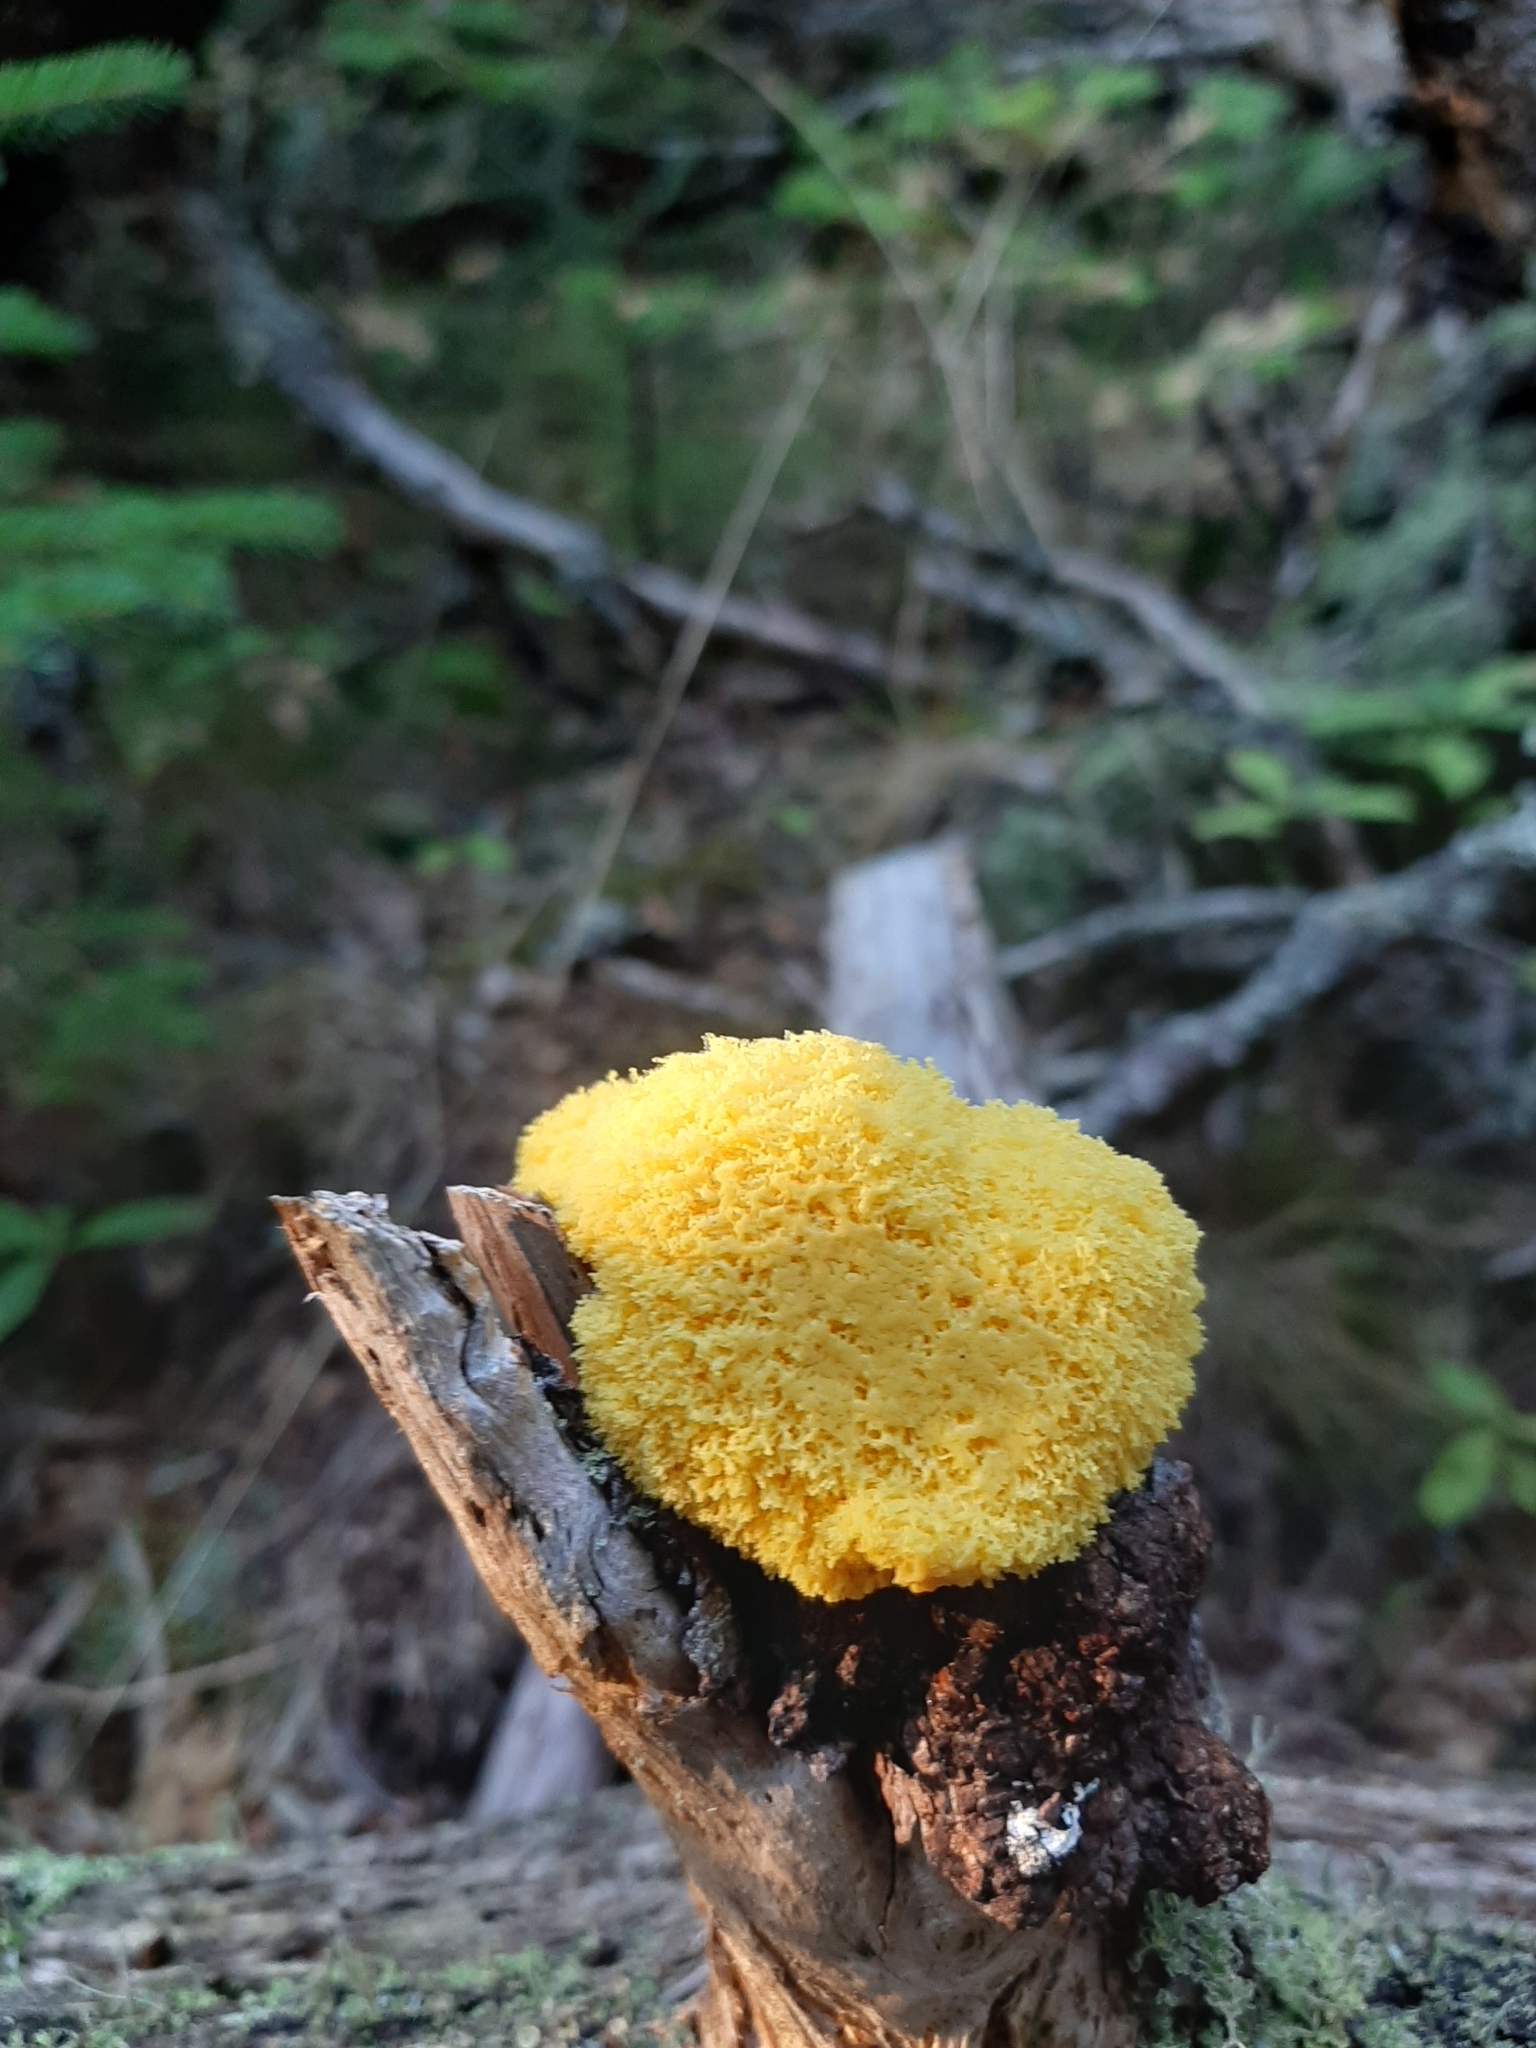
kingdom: Protozoa
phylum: Mycetozoa
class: Myxomycetes
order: Physarales
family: Physaraceae
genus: Fuligo
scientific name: Fuligo septica
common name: Dog vomit slime mold
